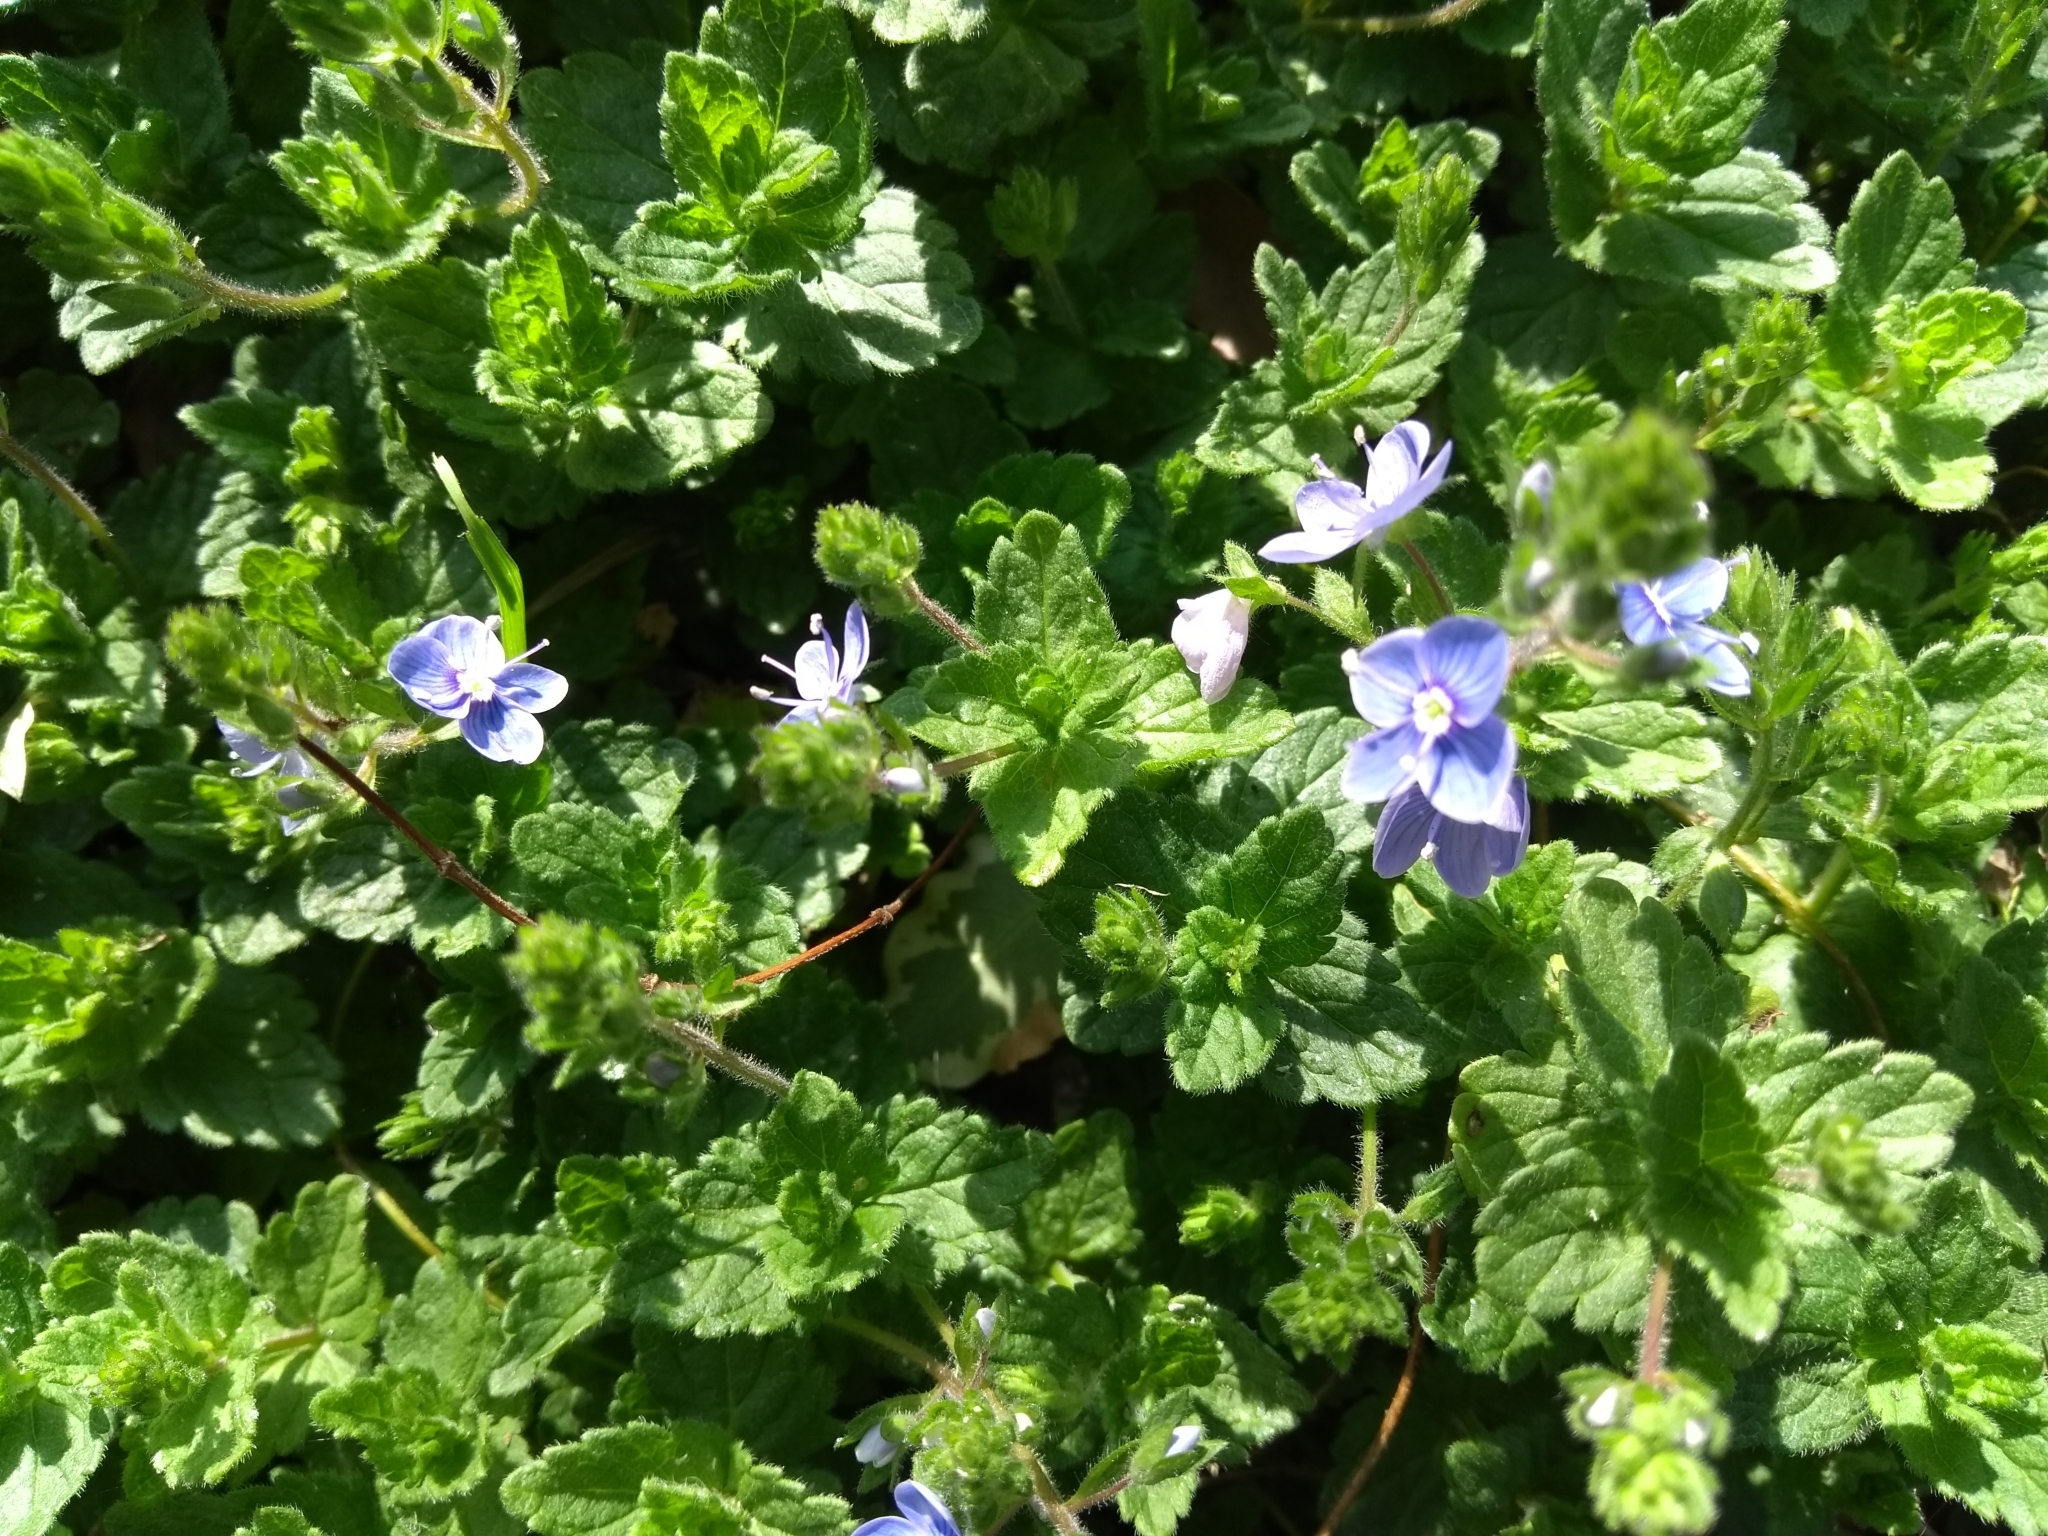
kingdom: Plantae
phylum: Tracheophyta
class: Magnoliopsida
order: Lamiales
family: Plantaginaceae
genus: Veronica
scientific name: Veronica chamaedrys
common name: Germander speedwell
